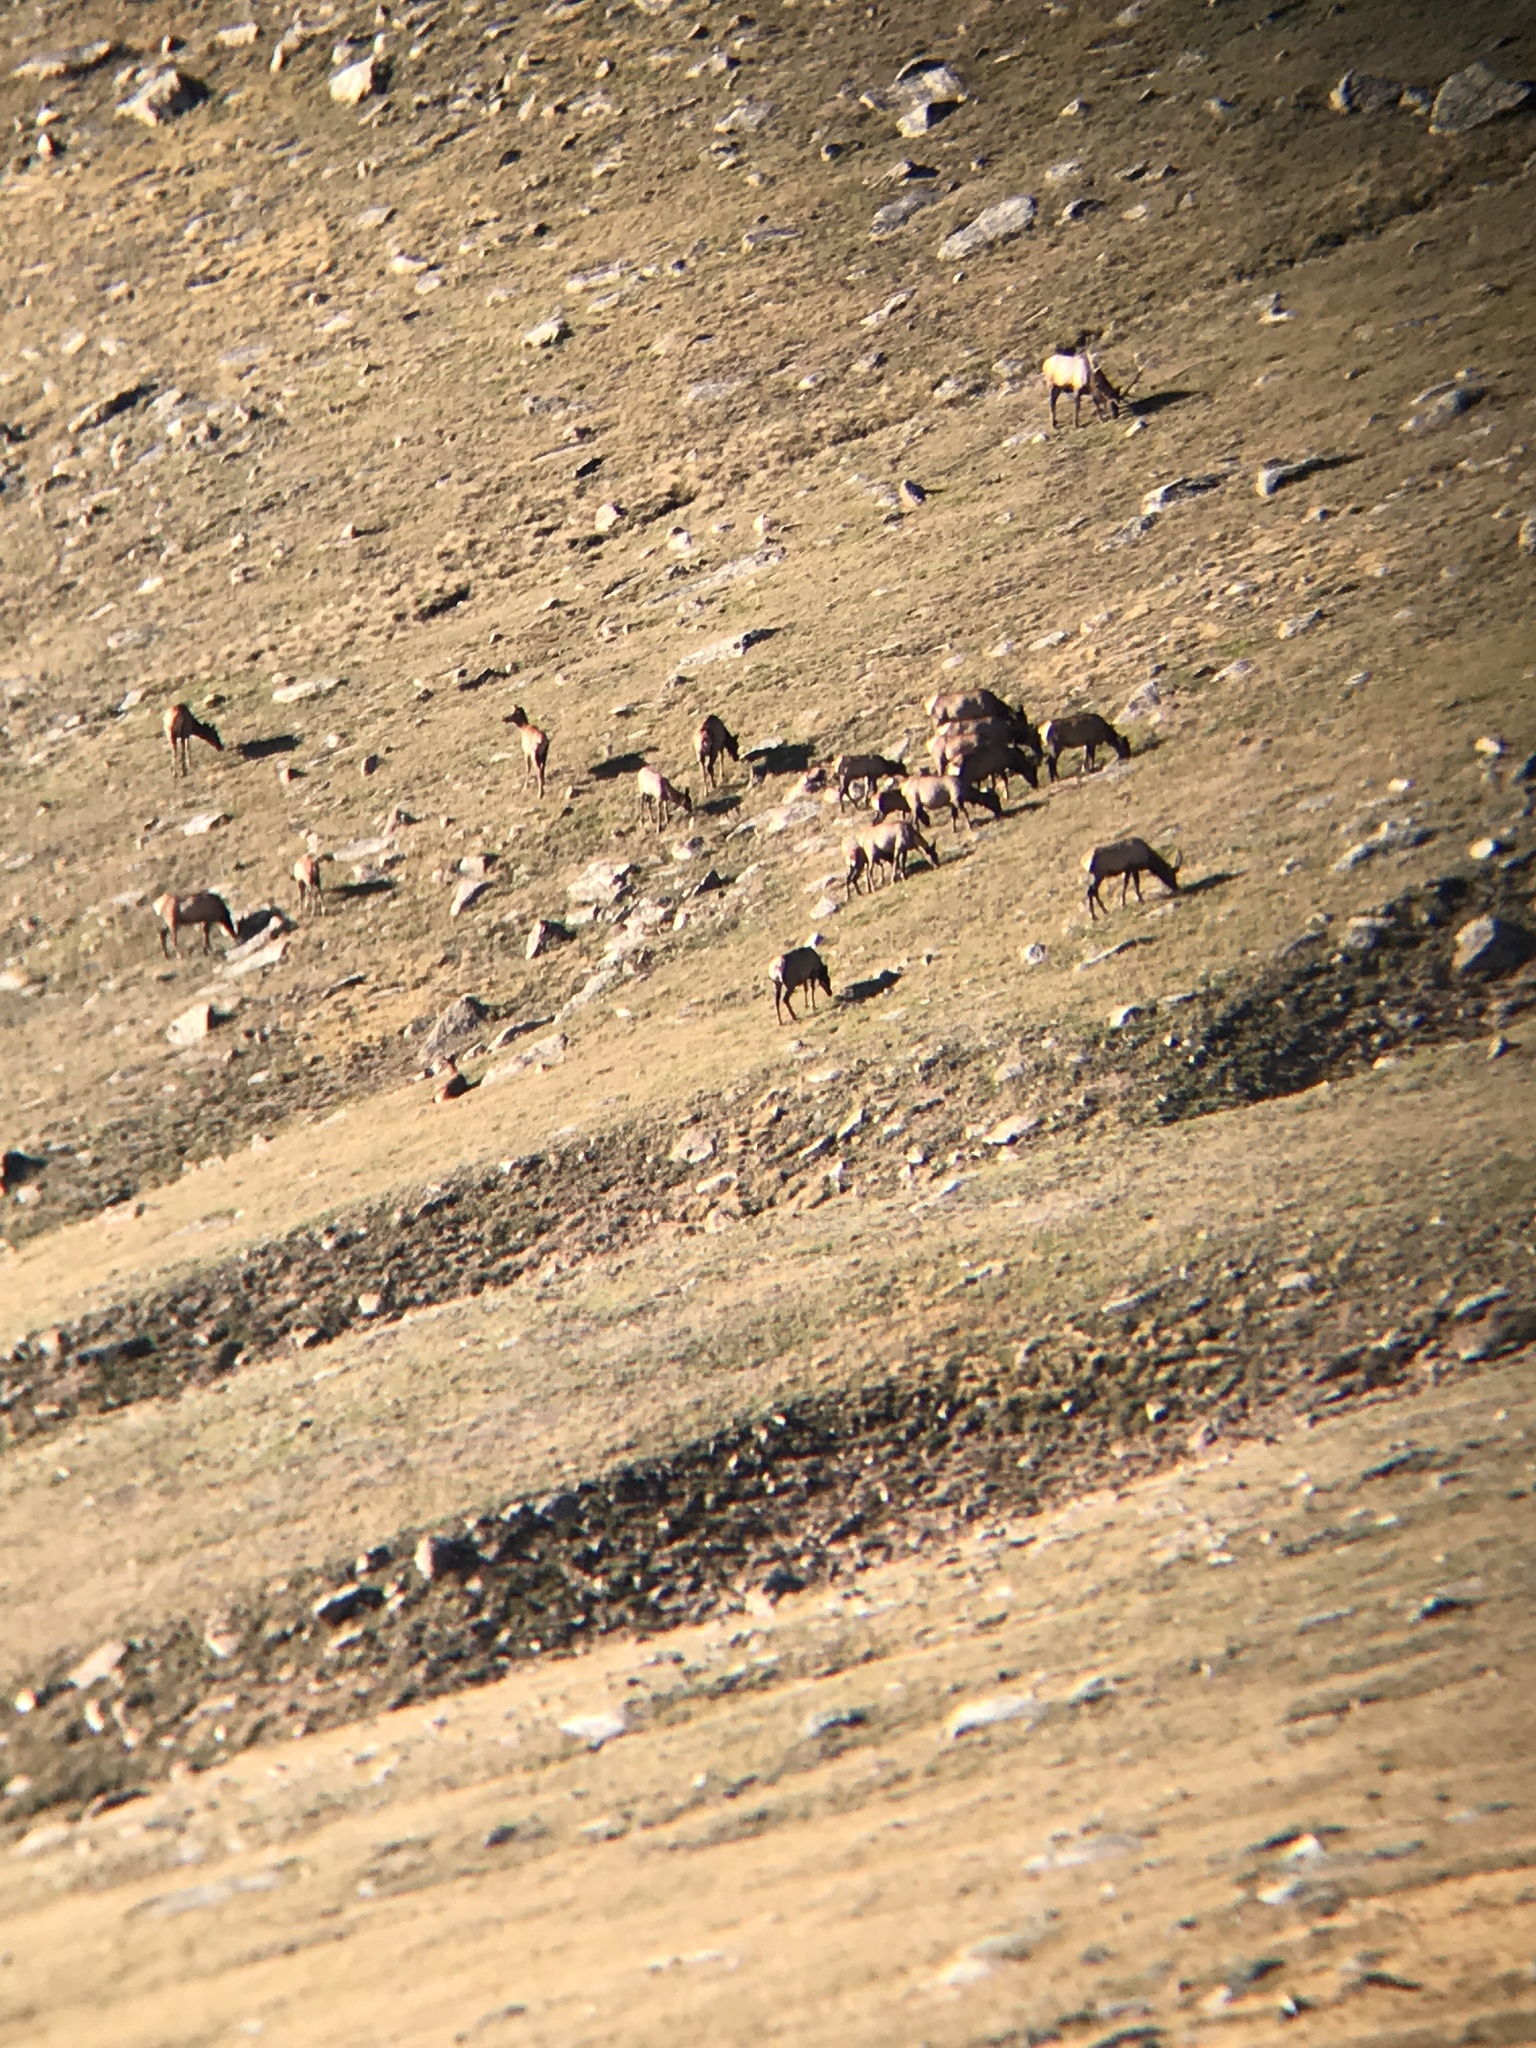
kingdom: Animalia
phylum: Chordata
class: Mammalia
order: Artiodactyla
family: Cervidae
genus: Cervus
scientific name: Cervus elaphus
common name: Red deer
